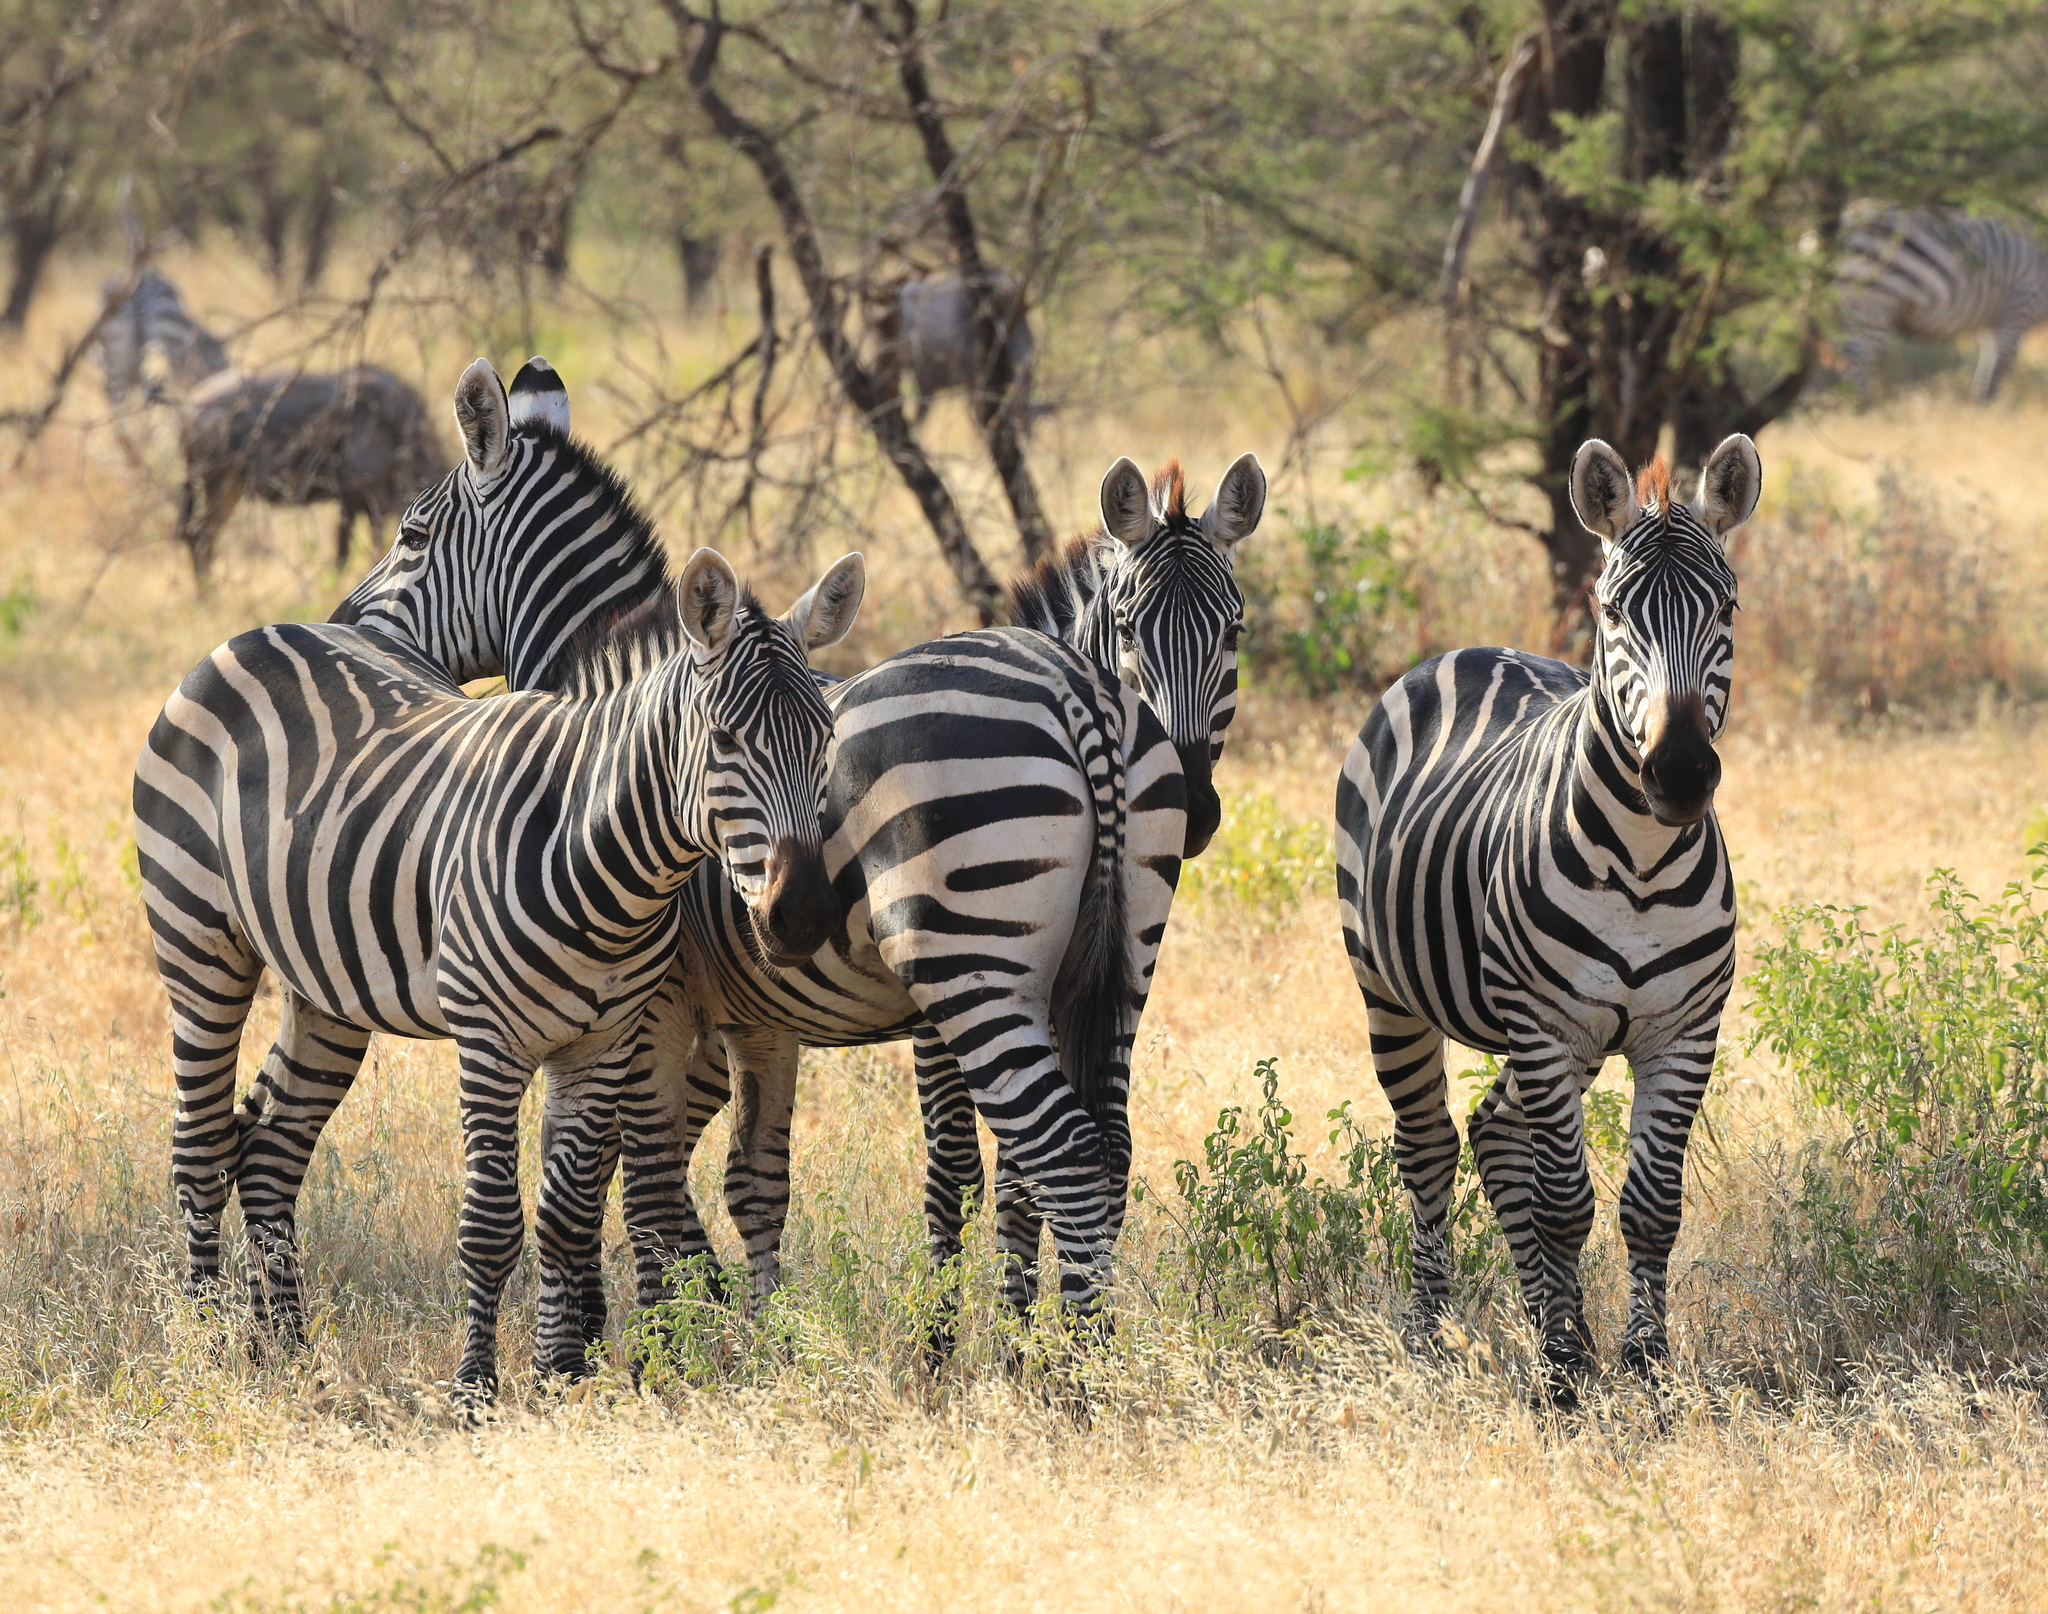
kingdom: Animalia
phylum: Chordata
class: Mammalia
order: Perissodactyla
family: Equidae
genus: Equus
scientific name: Equus quagga
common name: Plains zebra
